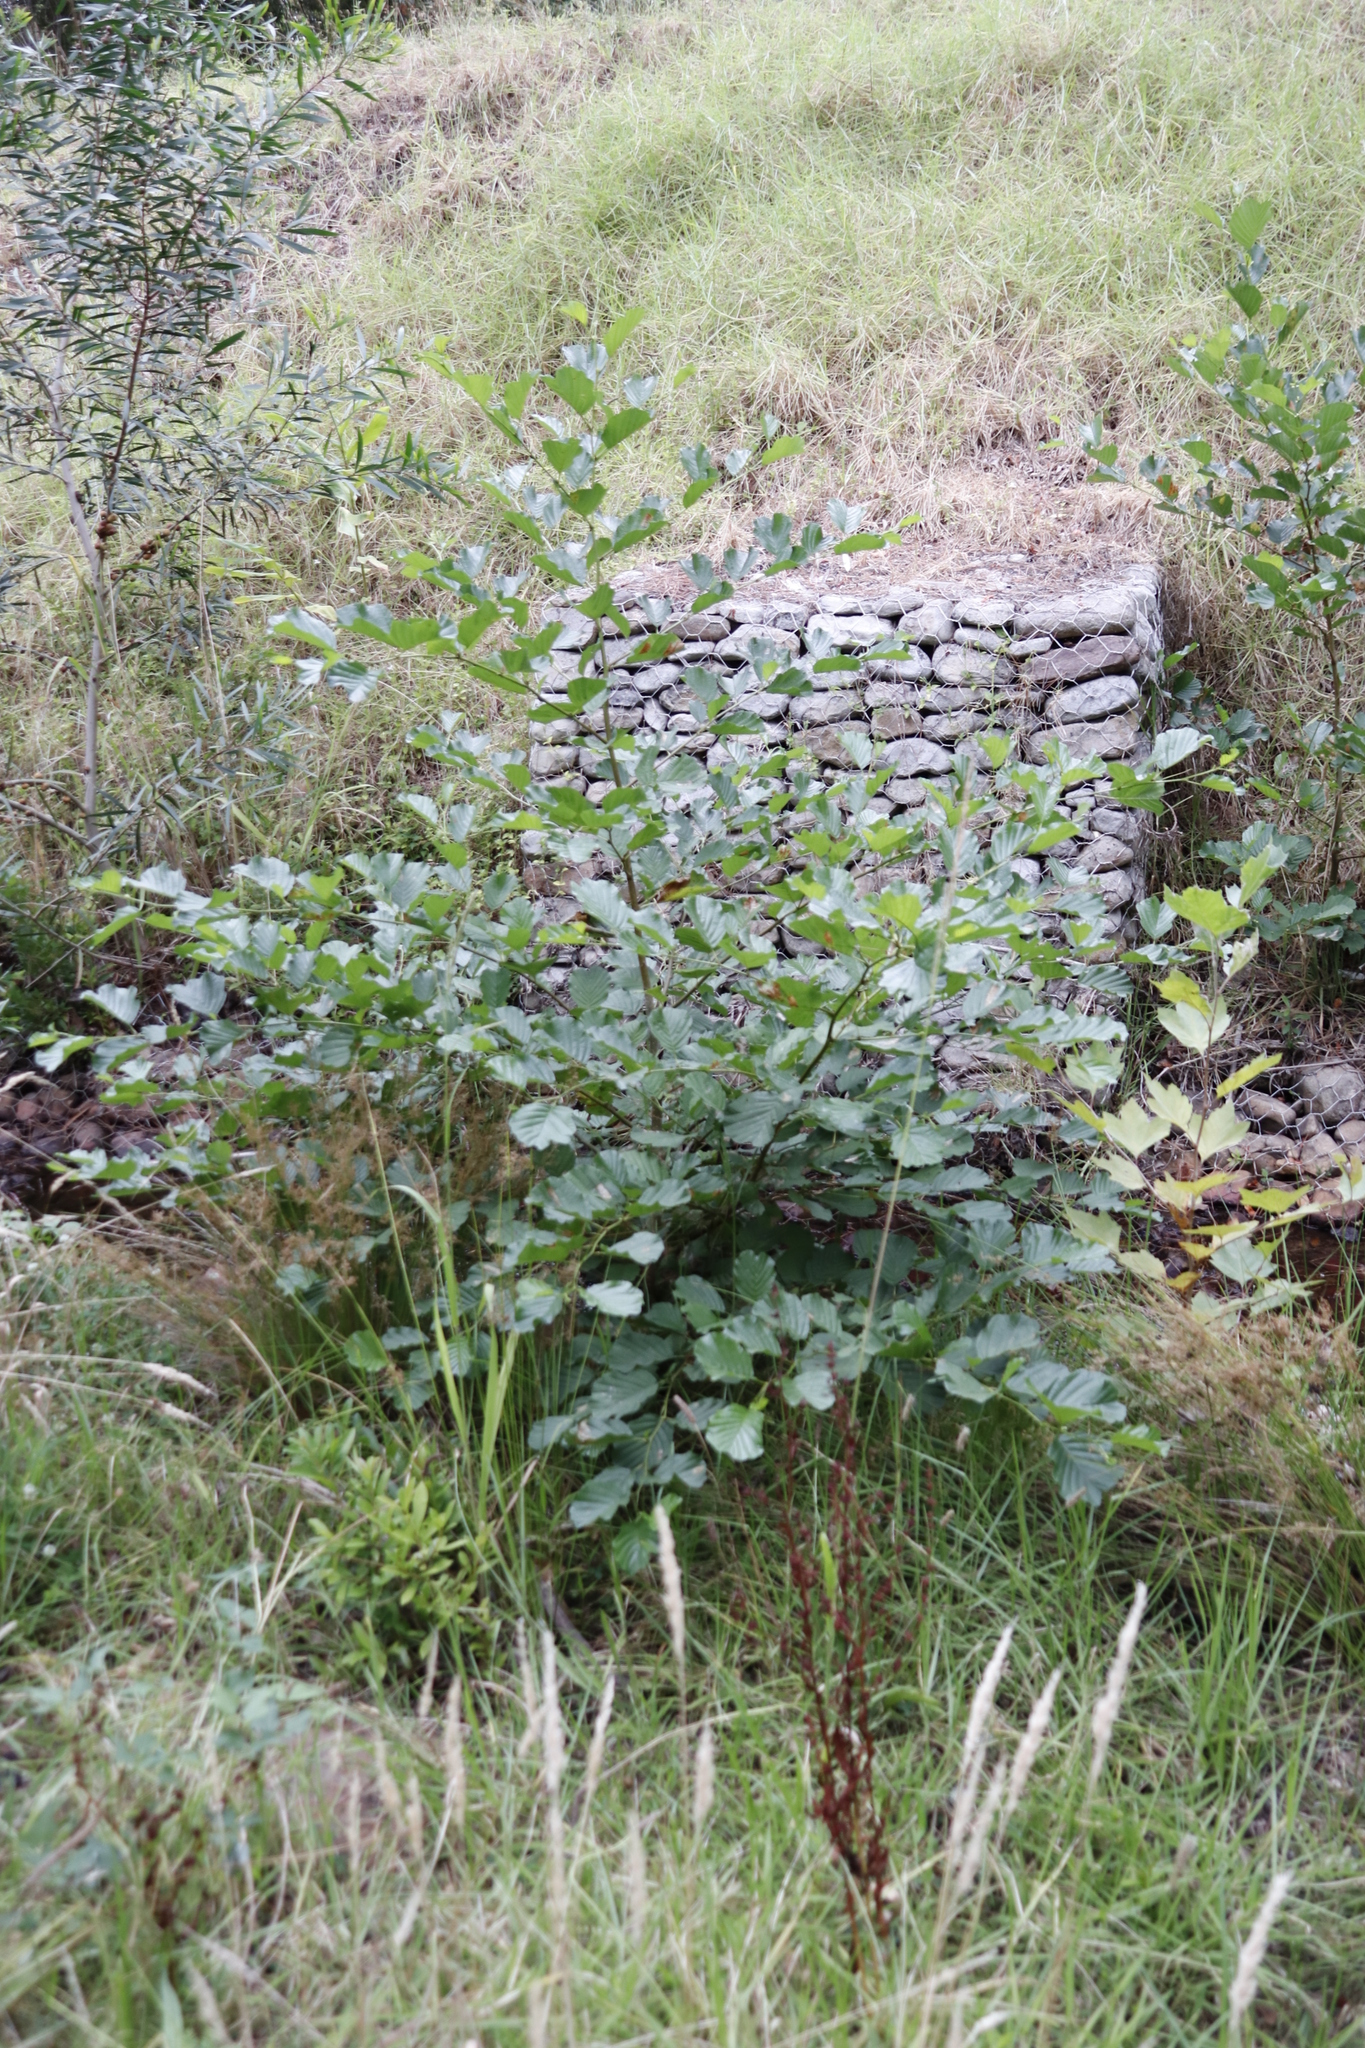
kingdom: Plantae
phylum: Tracheophyta
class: Magnoliopsida
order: Fagales
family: Betulaceae
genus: Alnus
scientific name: Alnus glutinosa
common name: Black alder
